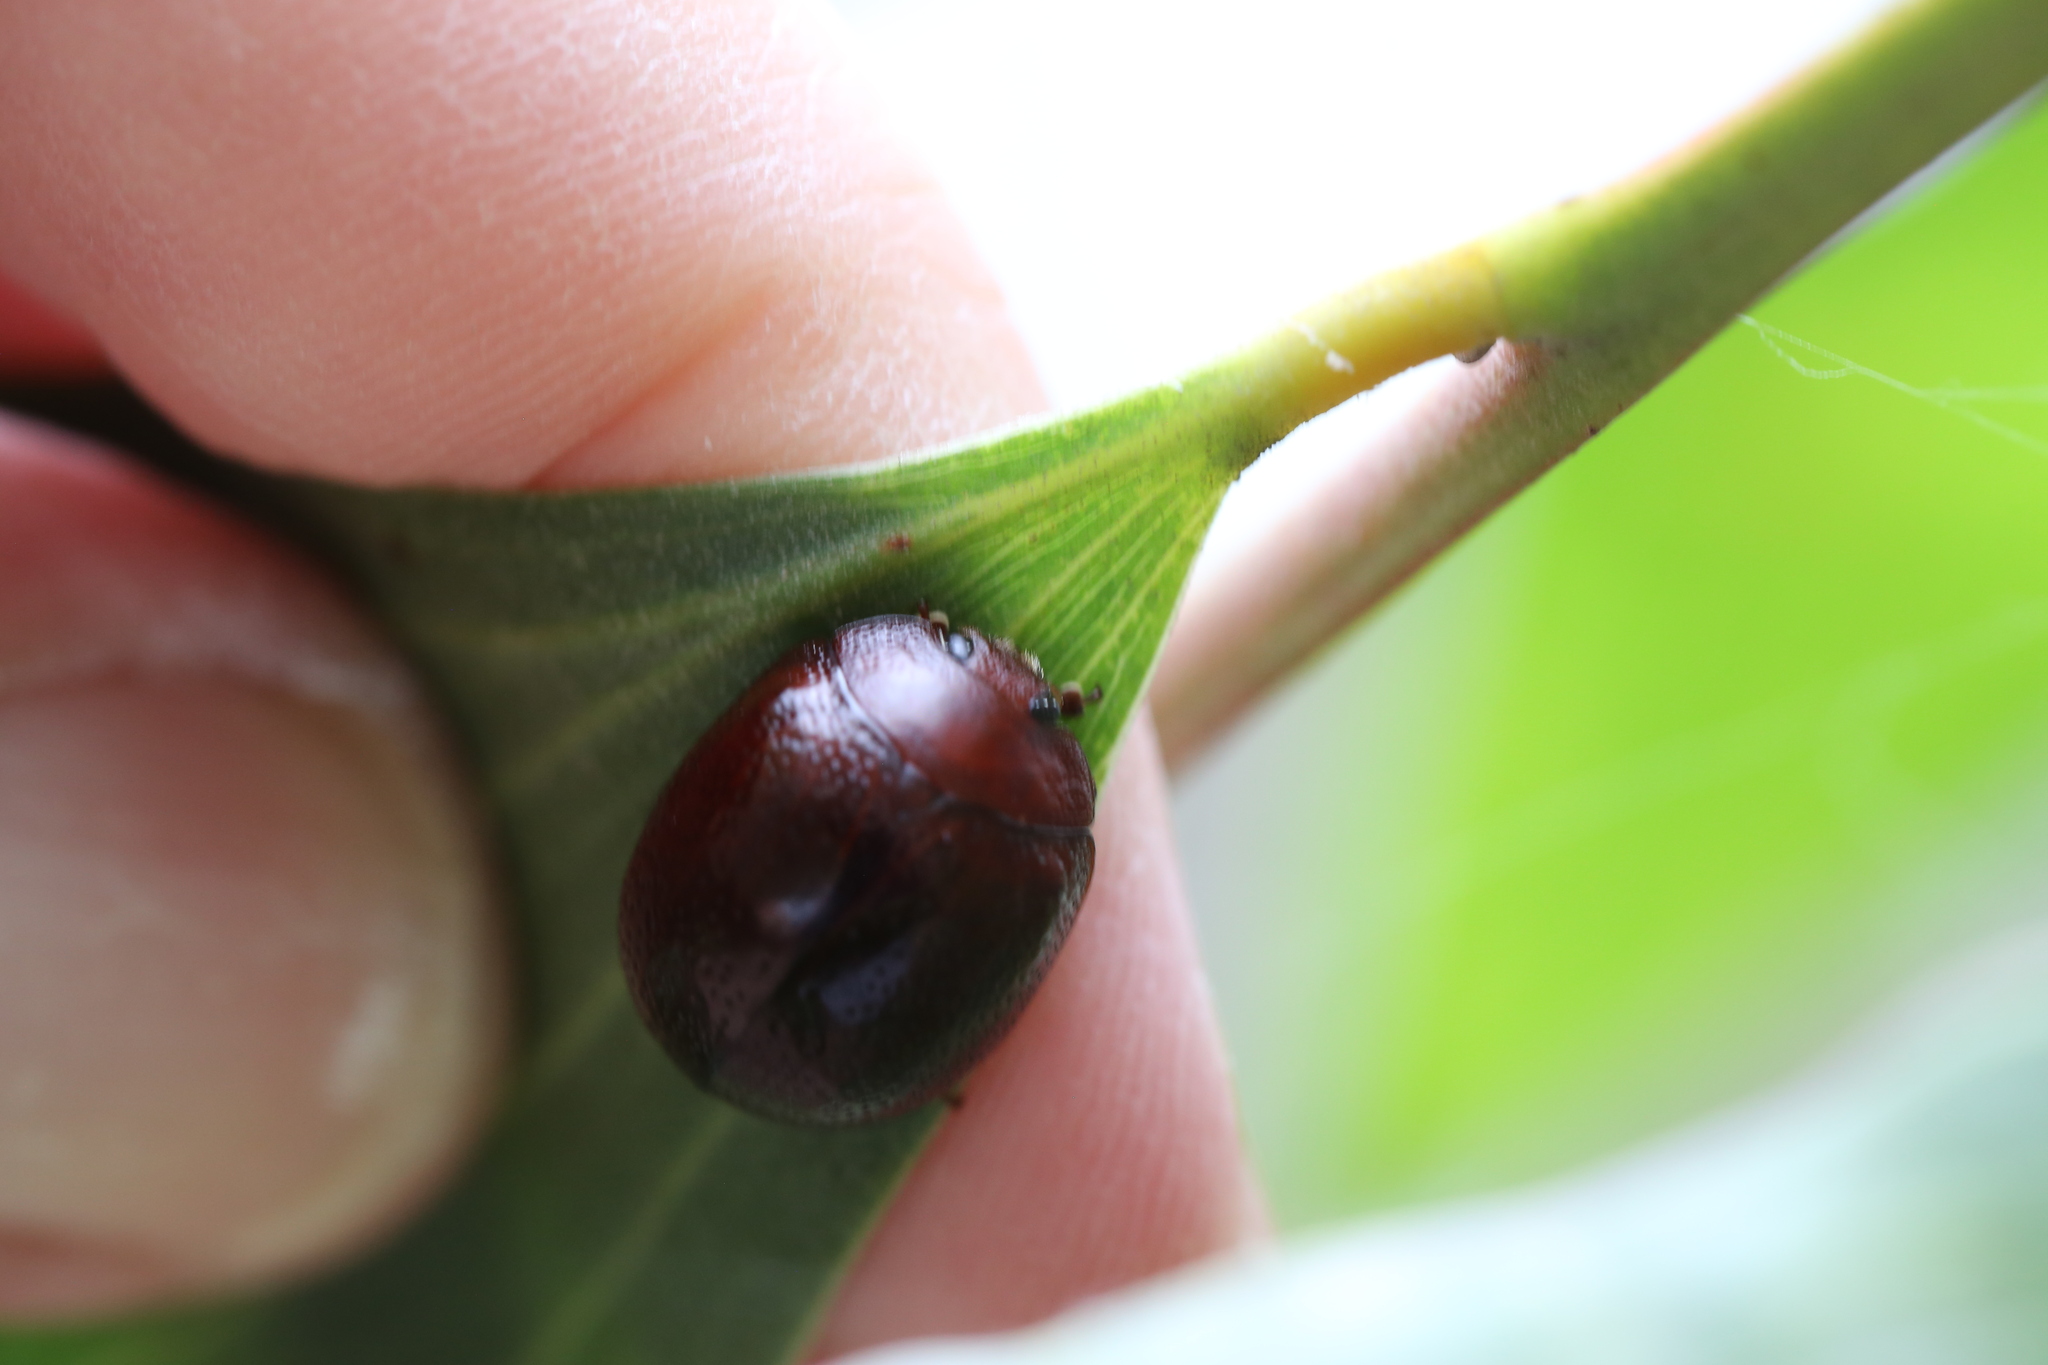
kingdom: Animalia
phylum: Arthropoda
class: Insecta
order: Coleoptera
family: Chrysomelidae
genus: Dicranosterna
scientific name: Dicranosterna
